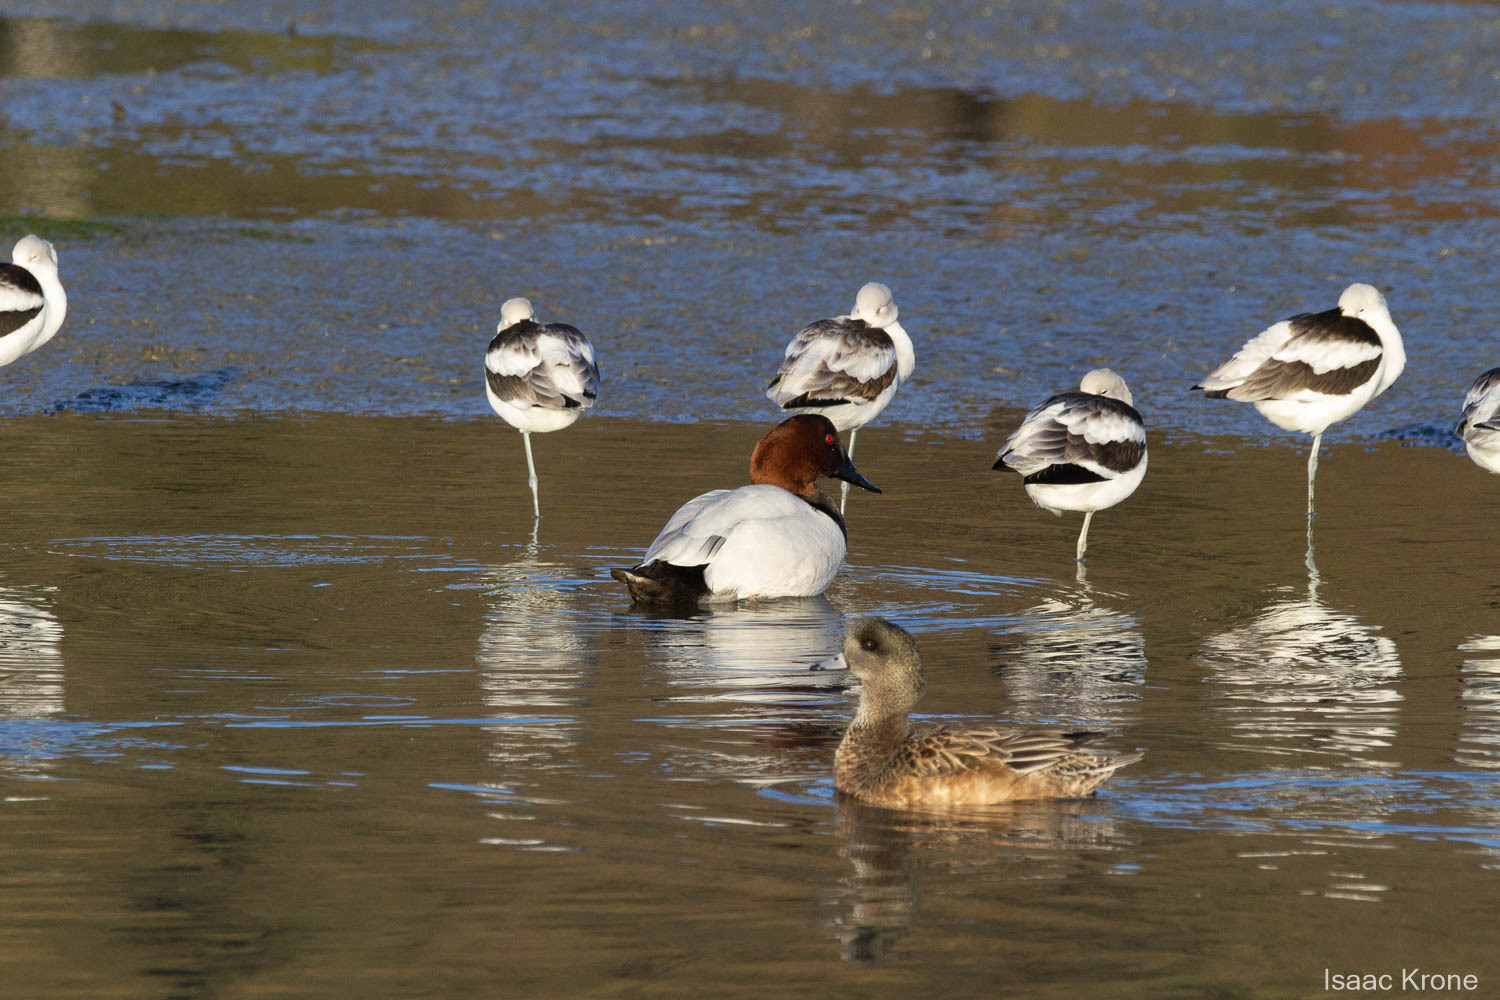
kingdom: Animalia
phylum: Chordata
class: Aves
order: Anseriformes
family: Anatidae
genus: Aythya
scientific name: Aythya valisineria
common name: Canvasback
